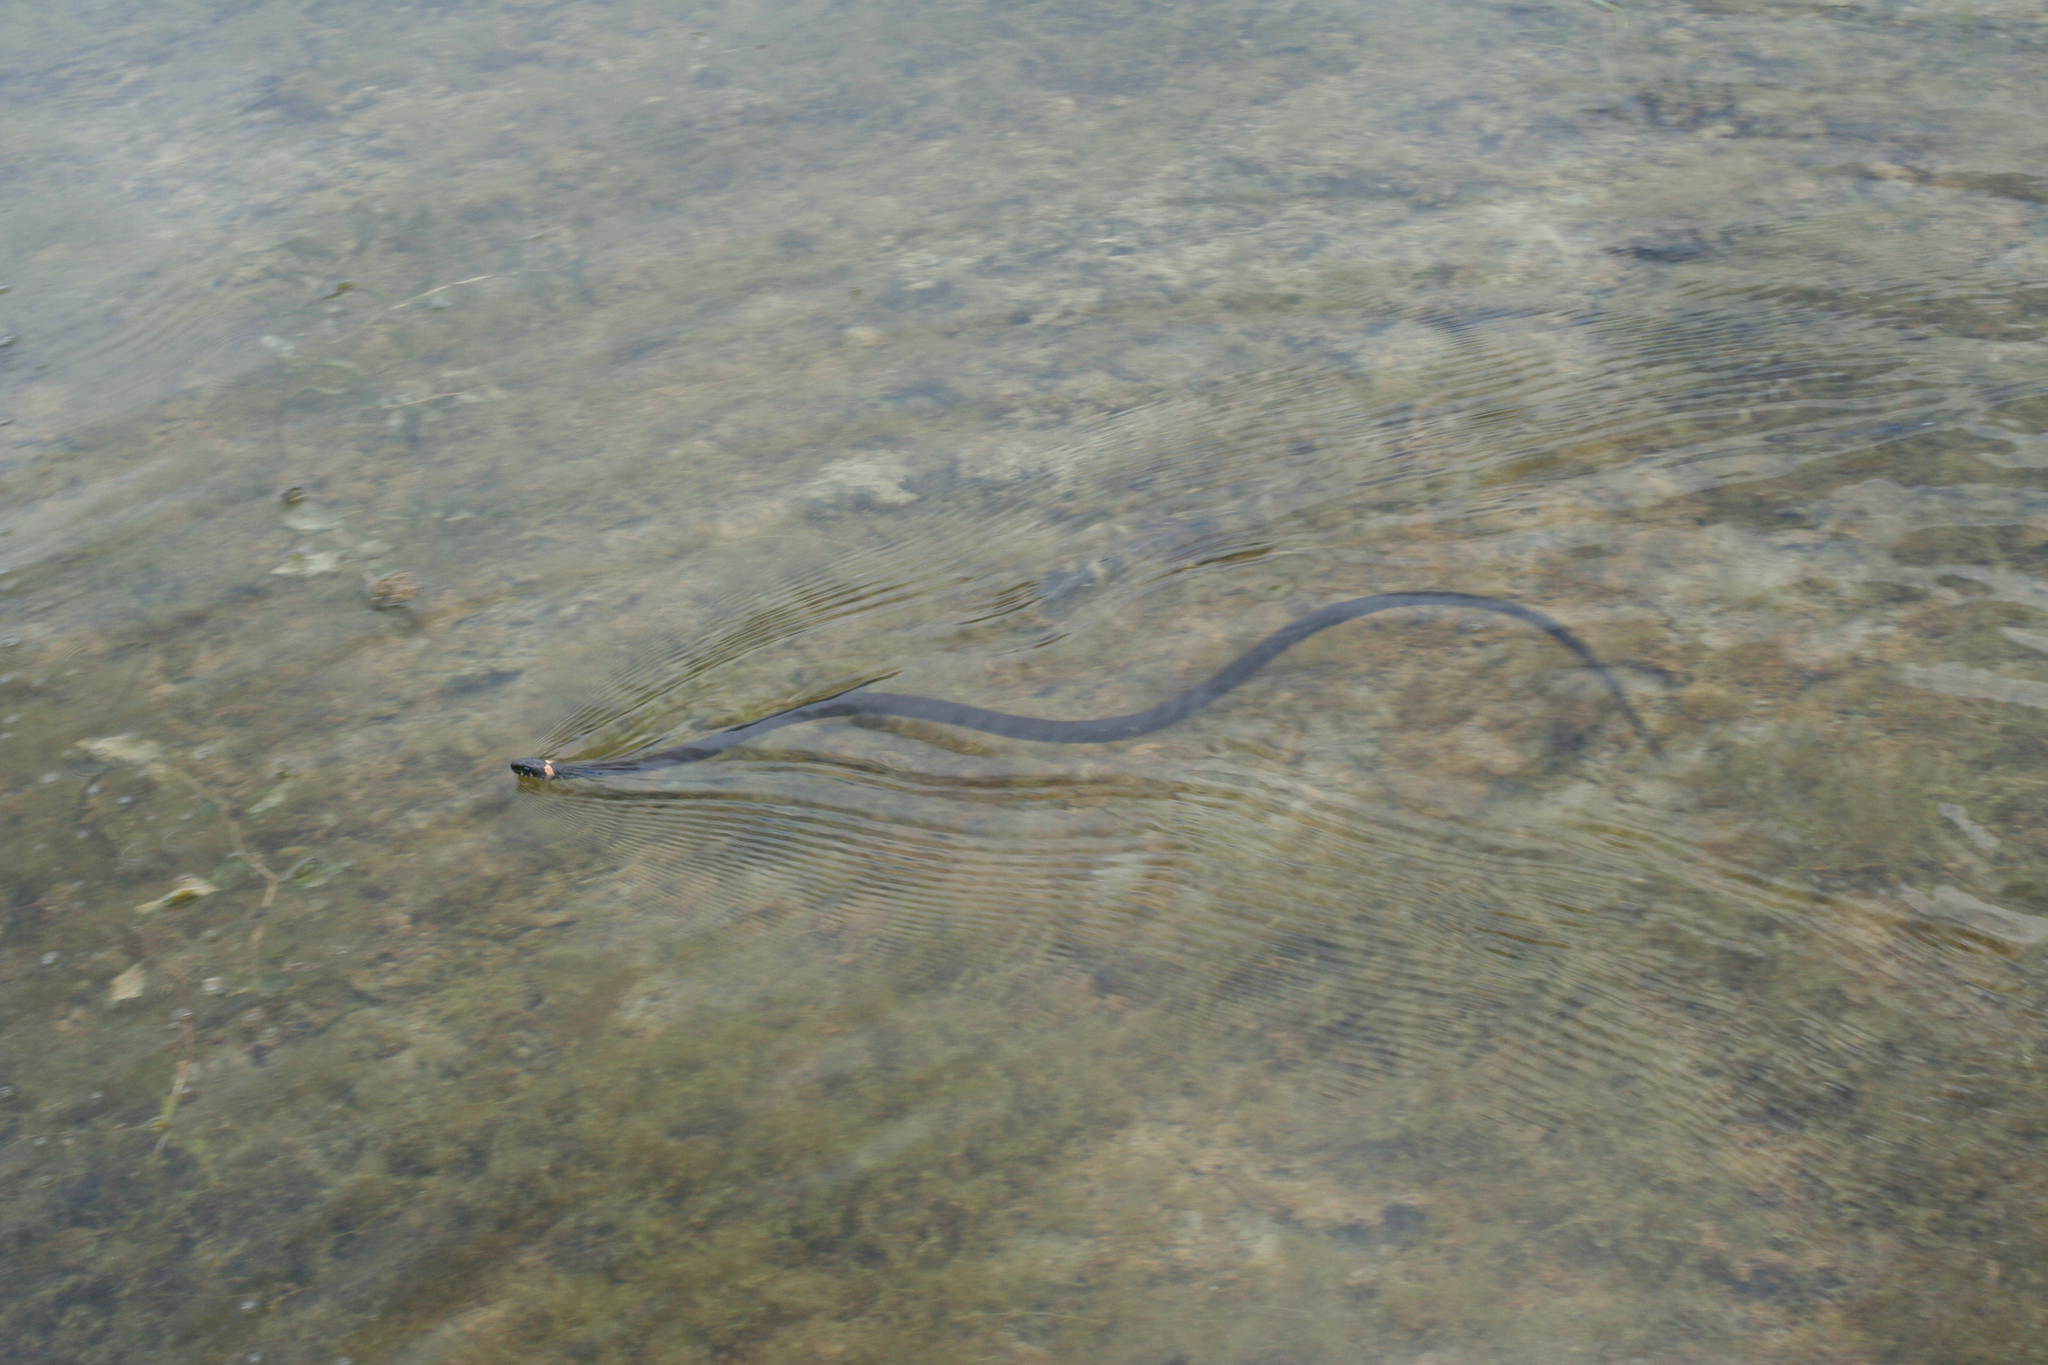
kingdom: Animalia
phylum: Chordata
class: Squamata
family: Colubridae
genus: Natrix
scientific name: Natrix natrix
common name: Grass snake
